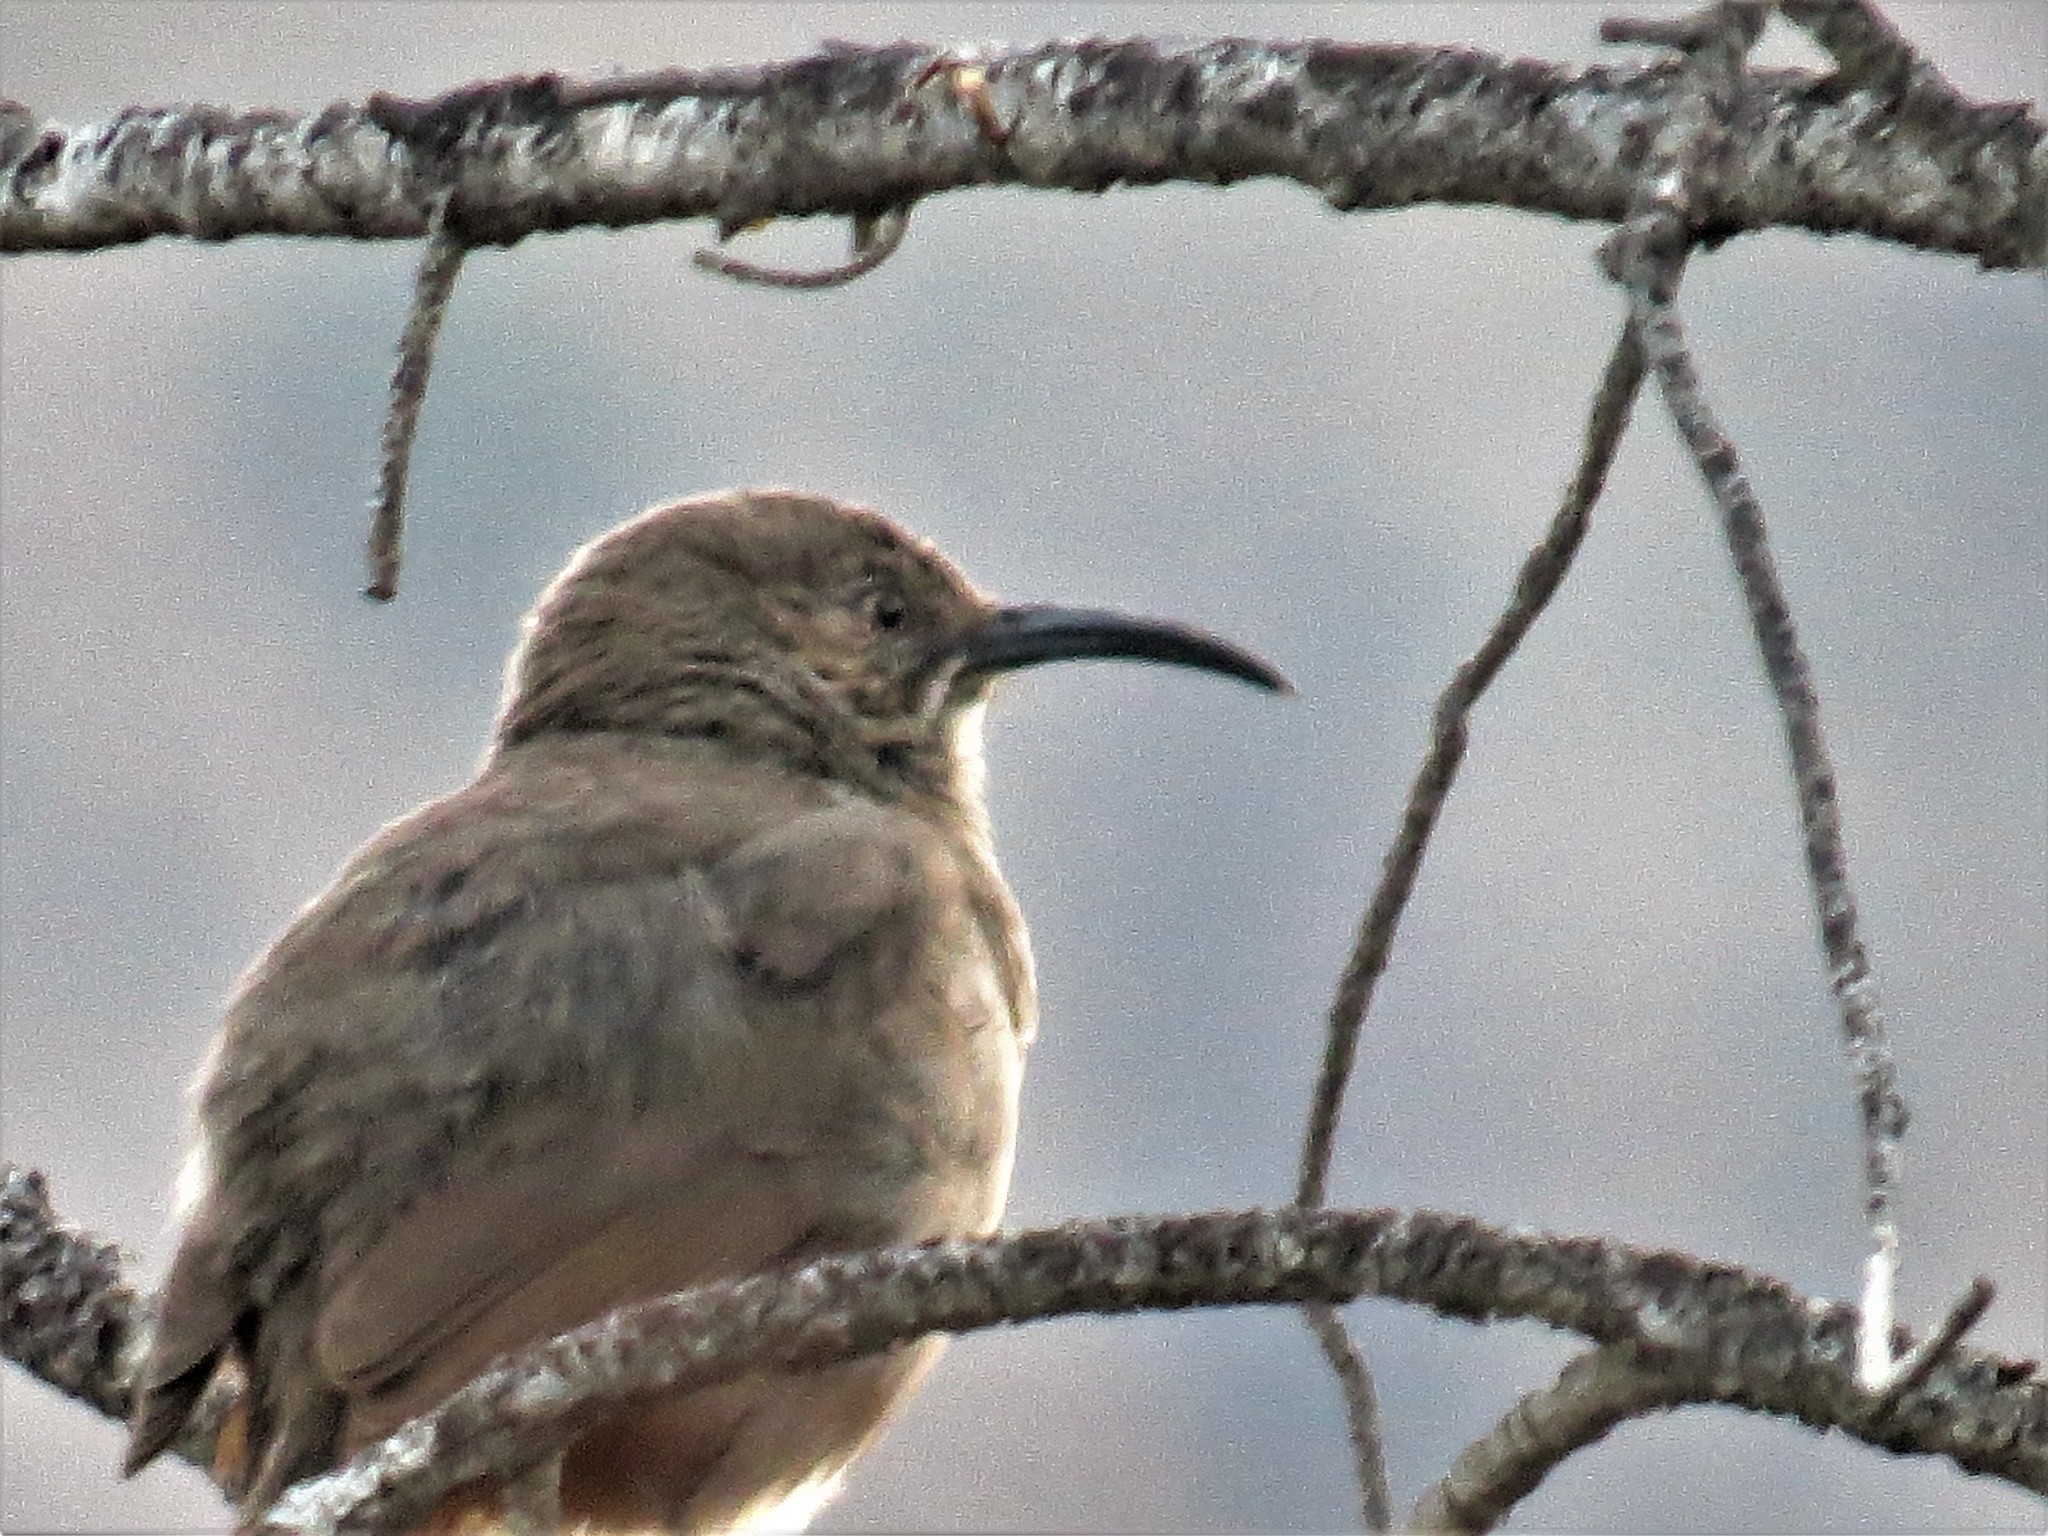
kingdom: Animalia
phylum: Chordata
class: Aves
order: Passeriformes
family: Mimidae
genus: Toxostoma
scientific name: Toxostoma crissale
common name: Crissal thrasher
